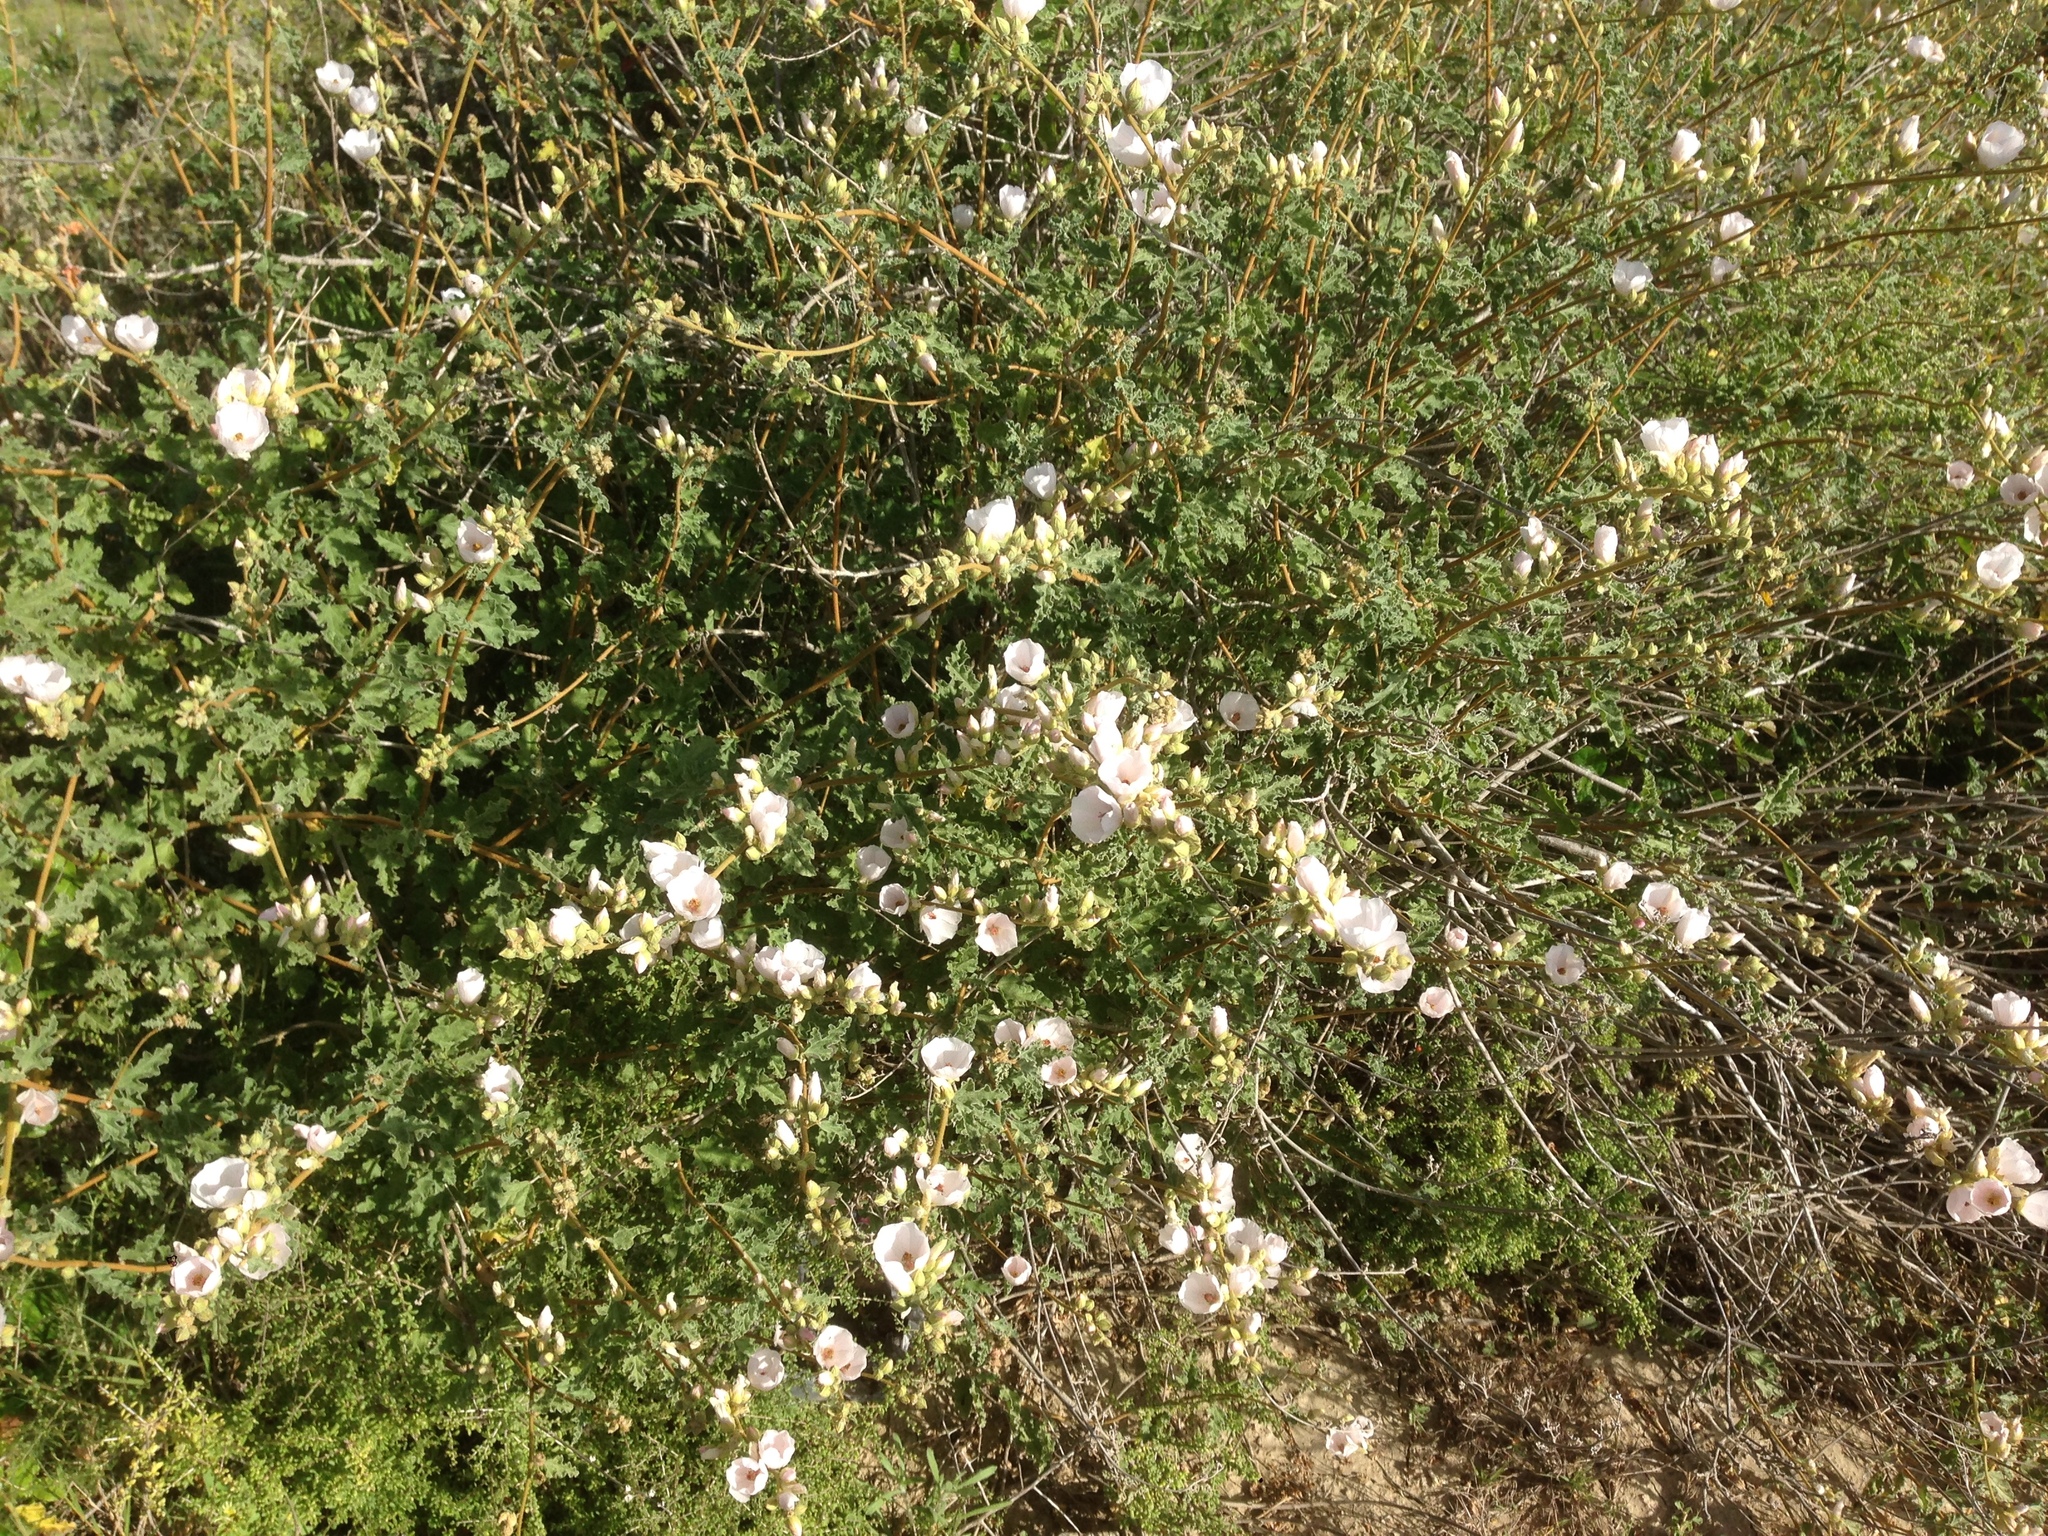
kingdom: Plantae
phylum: Tracheophyta
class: Magnoliopsida
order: Malvales
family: Malvaceae
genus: Sphaeralcea
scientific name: Sphaeralcea fulva
